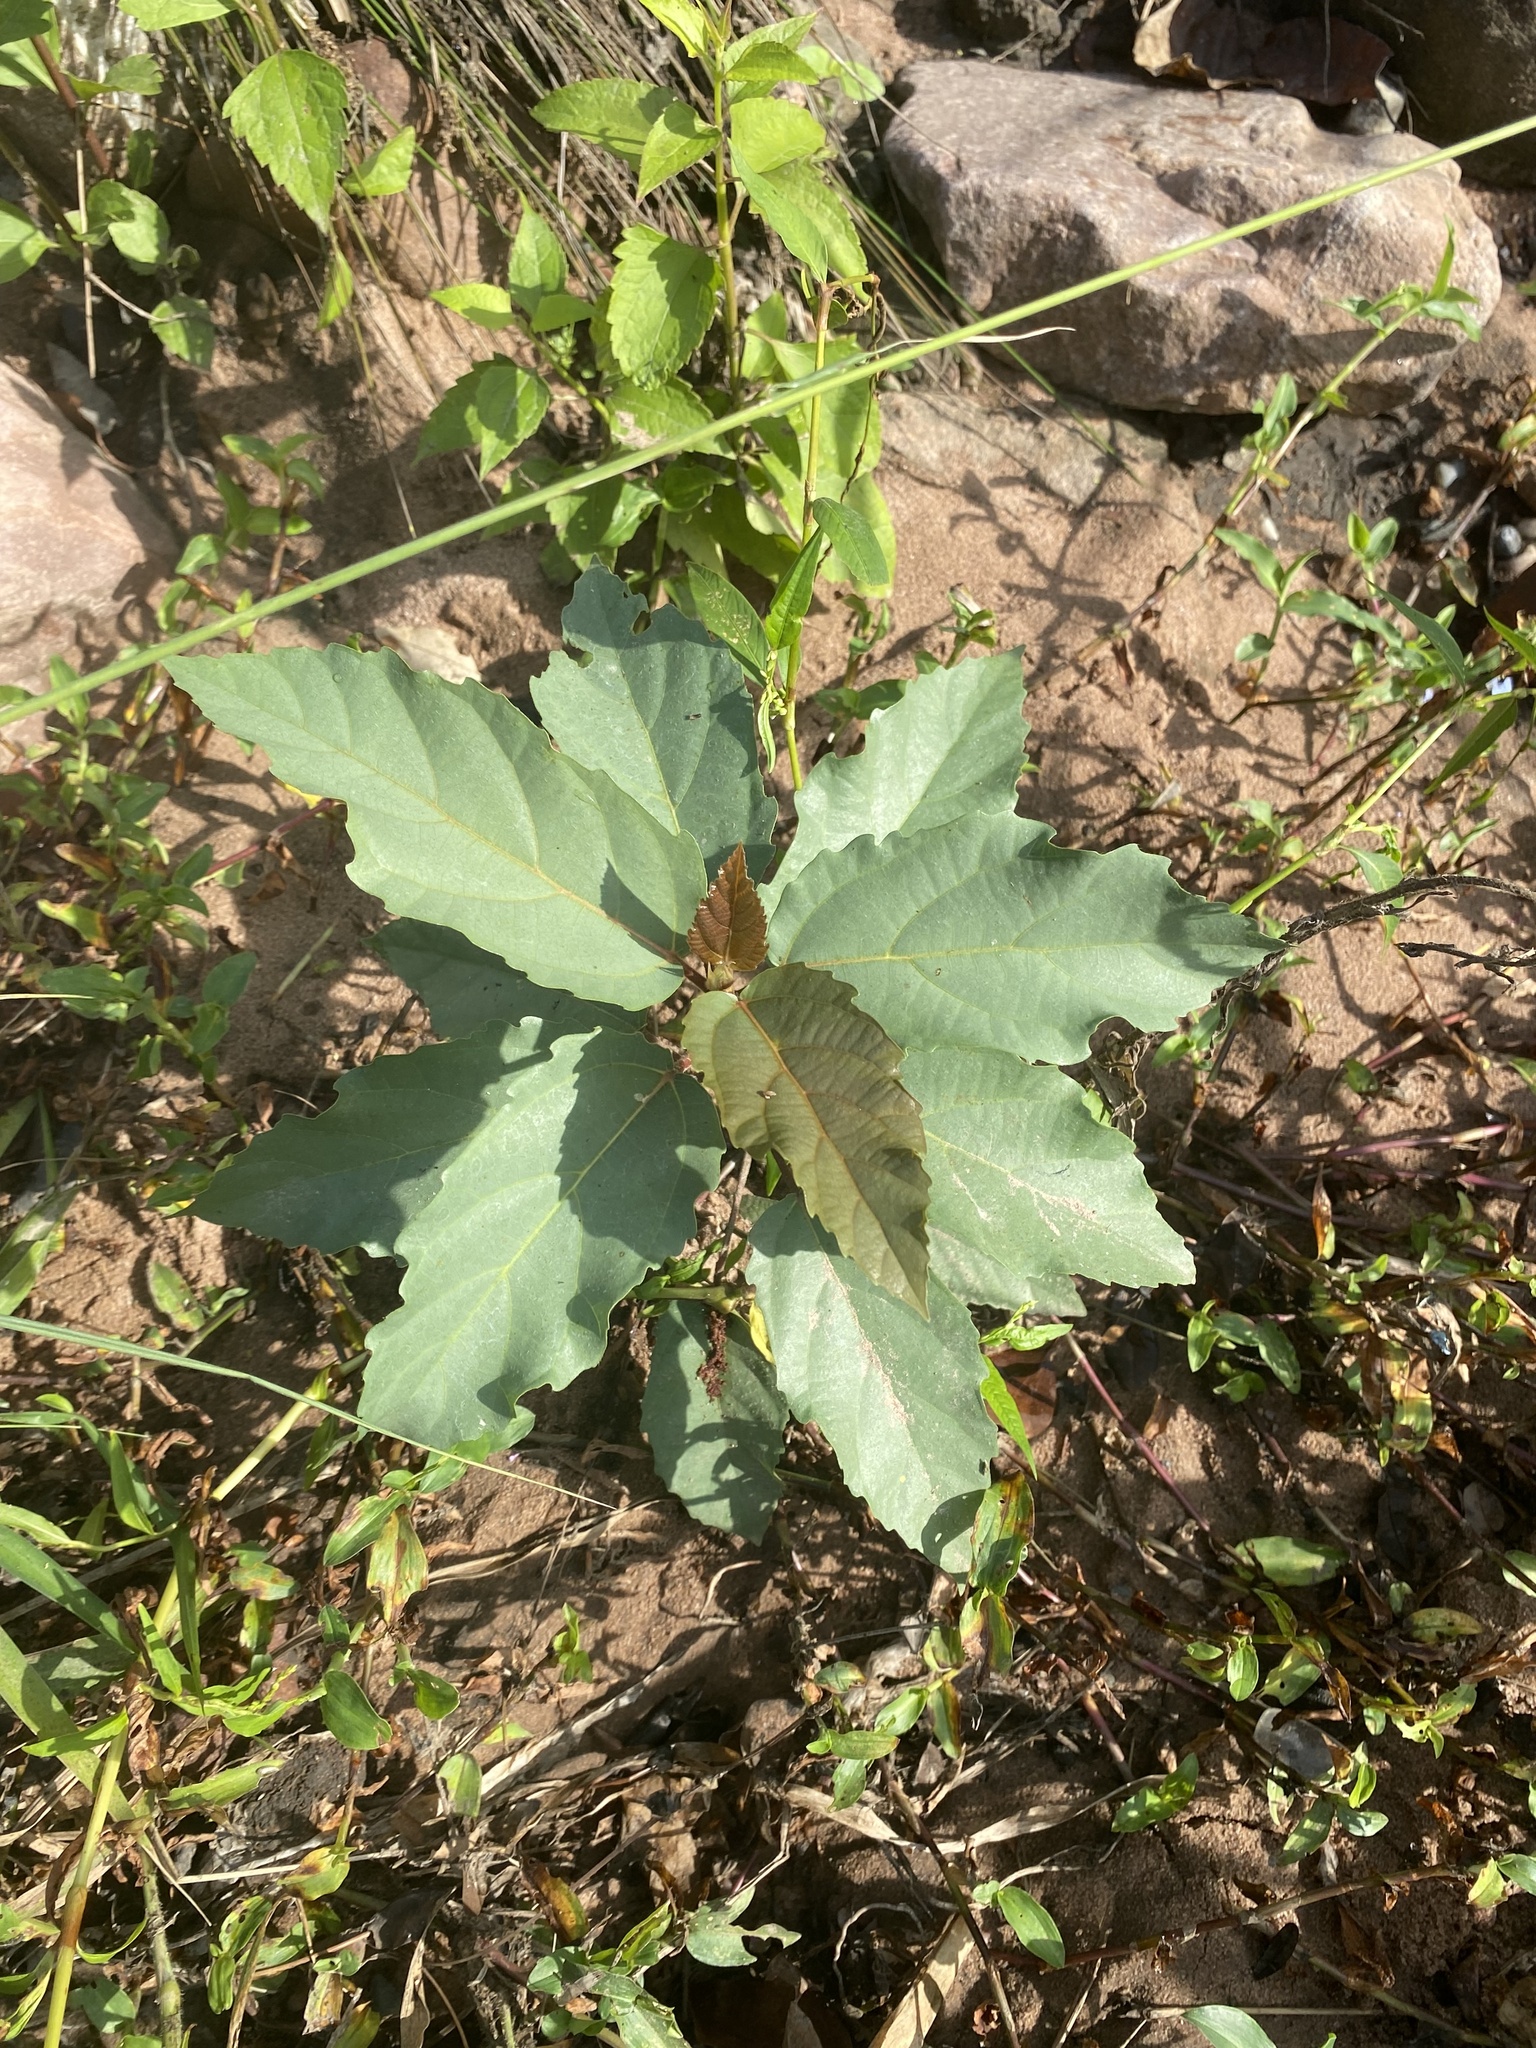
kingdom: Plantae
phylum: Tracheophyta
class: Magnoliopsida
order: Rosales
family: Moraceae
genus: Ficus
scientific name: Ficus sur
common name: Cape fig
